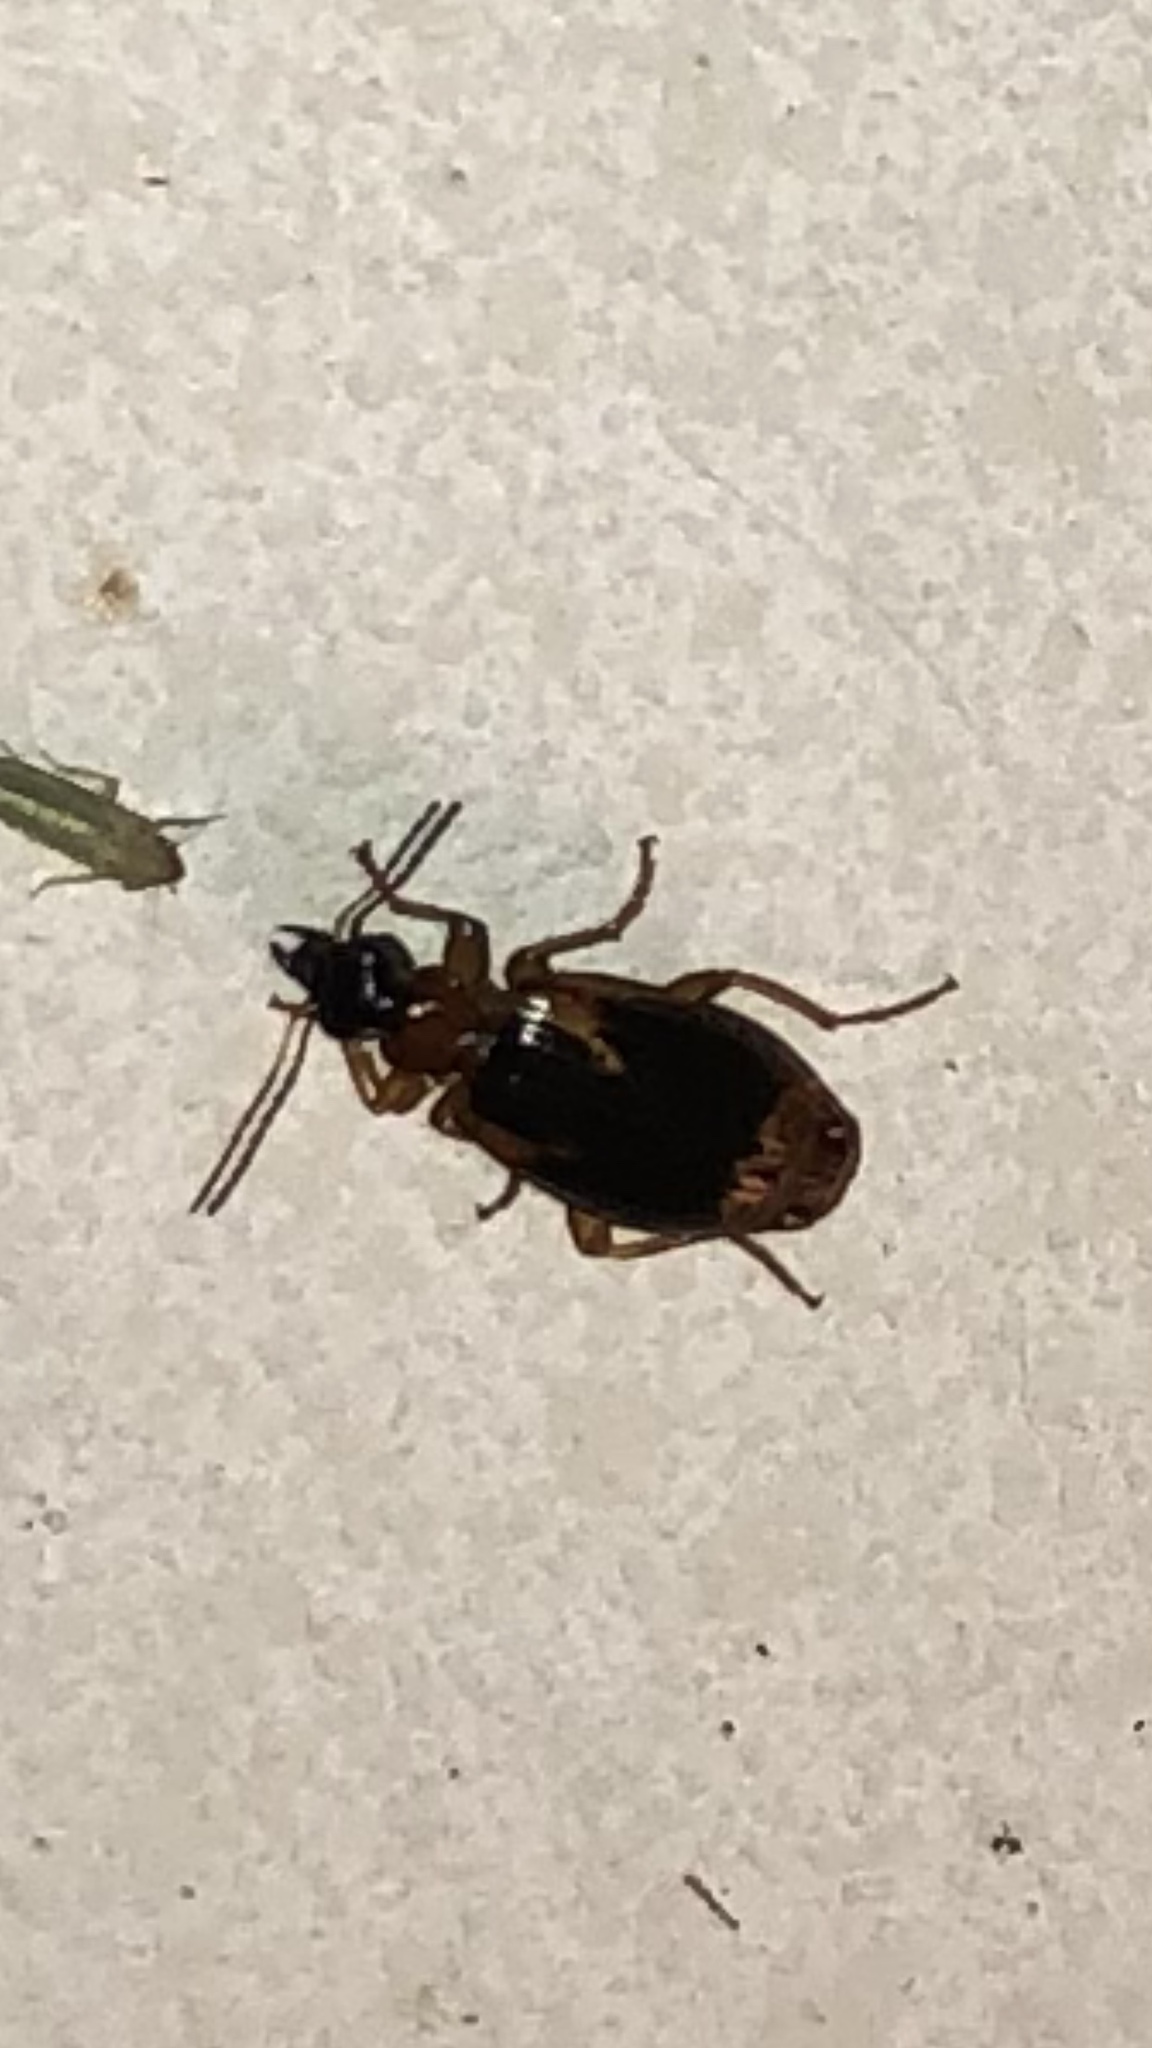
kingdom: Animalia
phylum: Arthropoda
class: Insecta
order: Coleoptera
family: Carabidae
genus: Lebia
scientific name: Lebia solea
